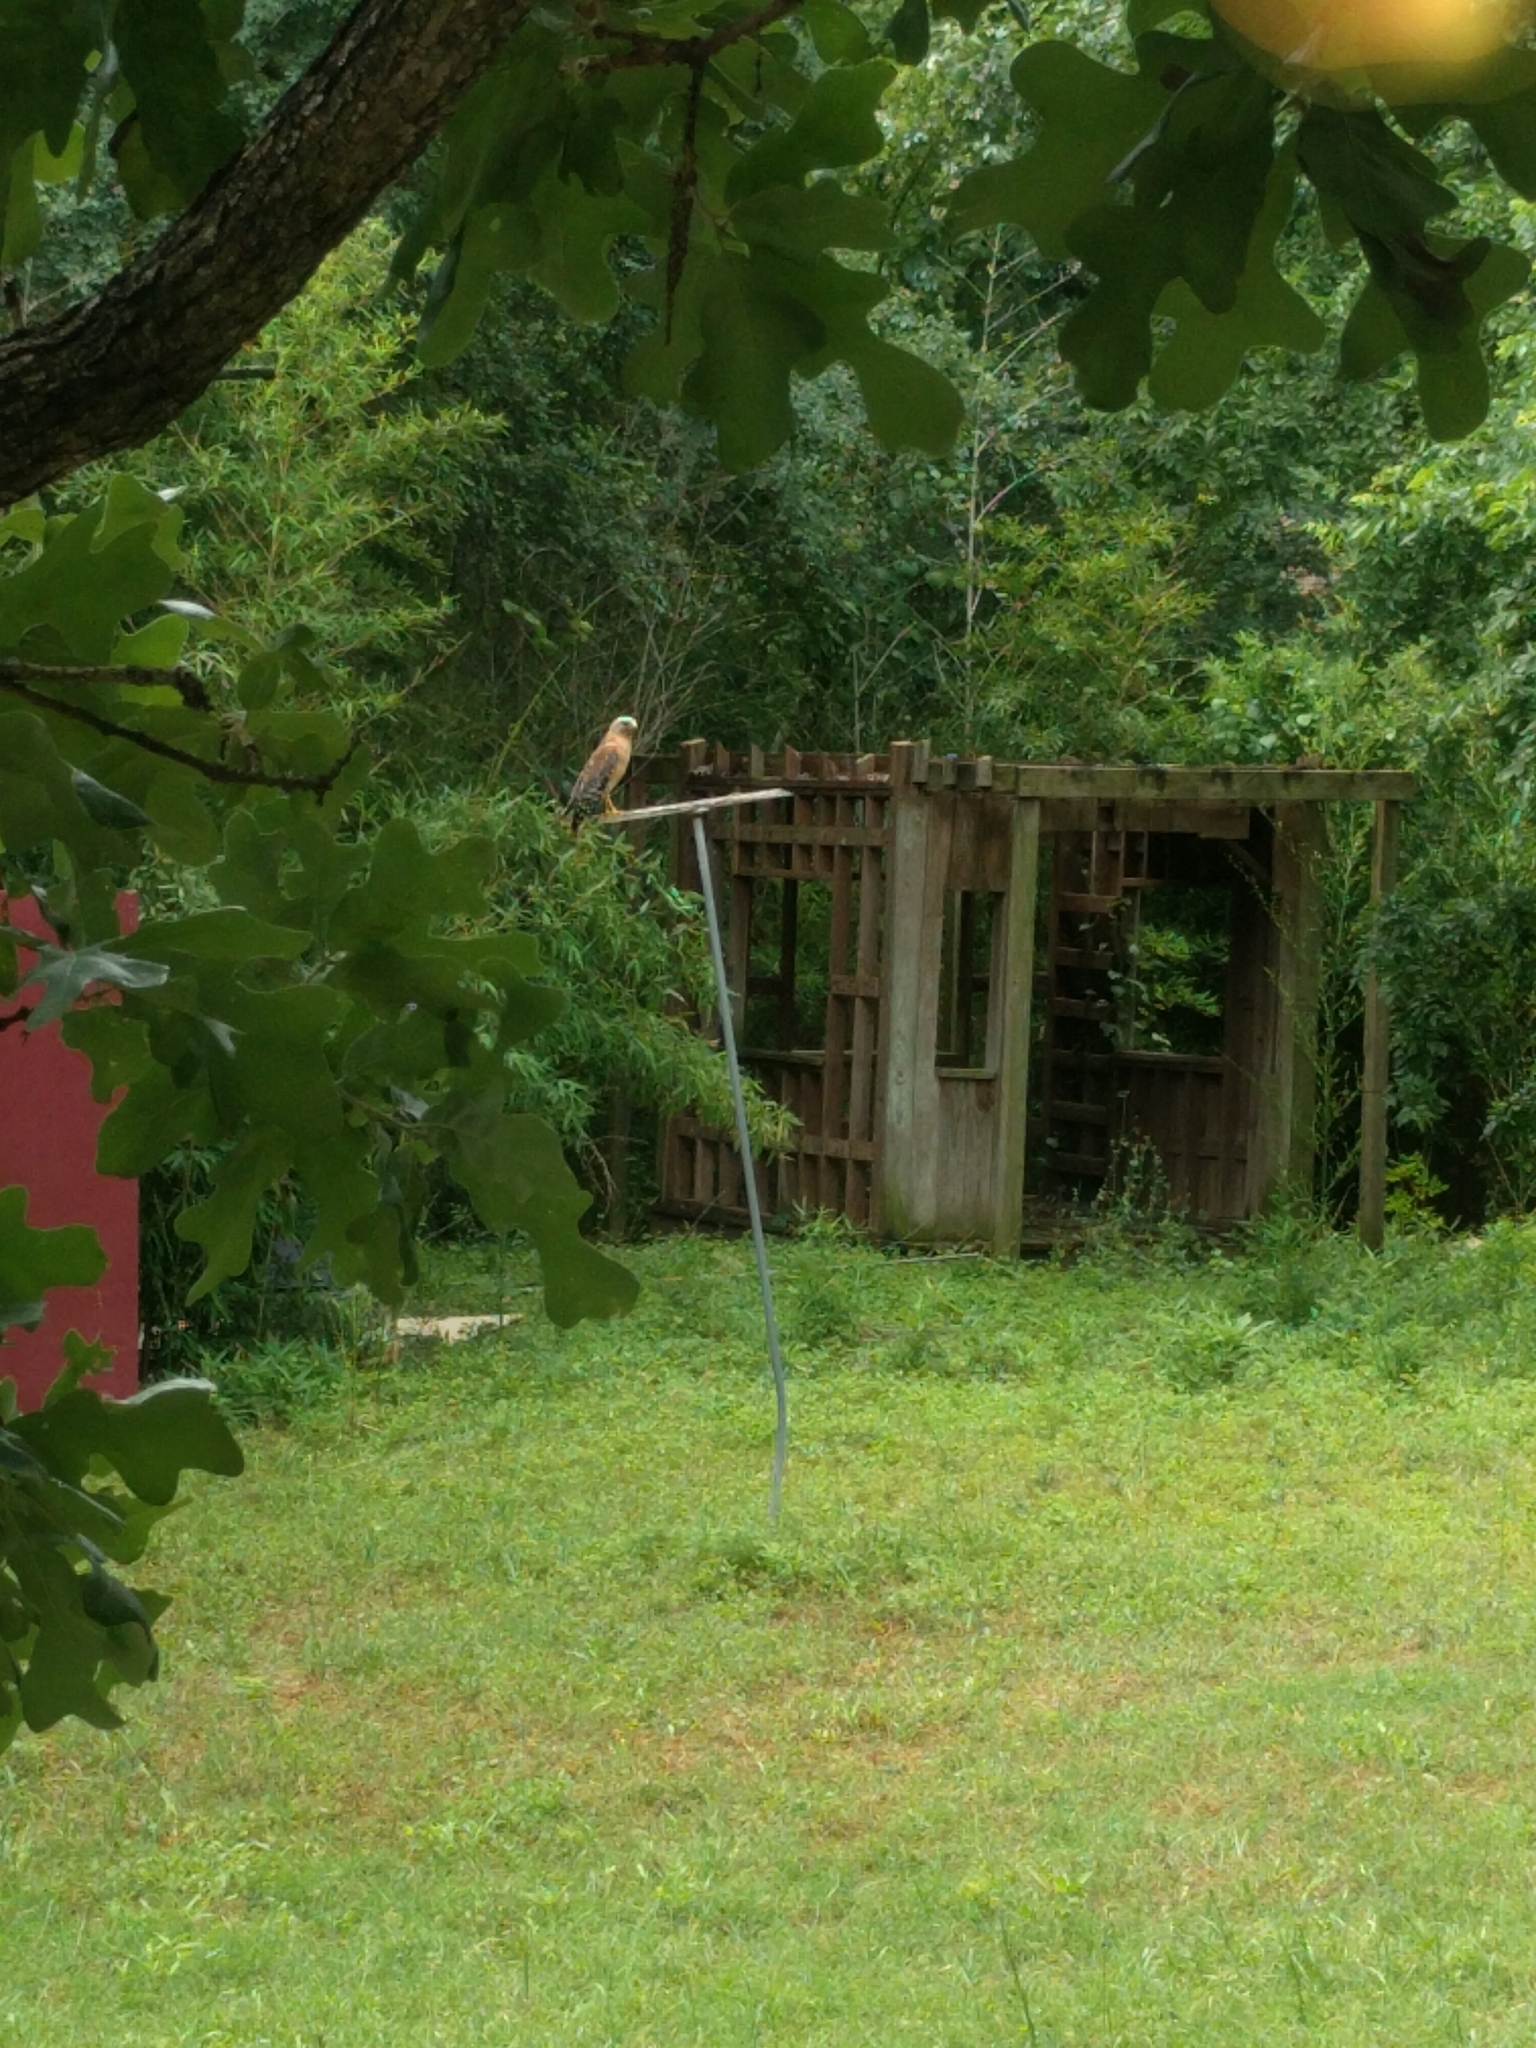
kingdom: Animalia
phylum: Chordata
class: Aves
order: Accipitriformes
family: Accipitridae
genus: Buteo
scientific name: Buteo lineatus
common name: Red-shouldered hawk
